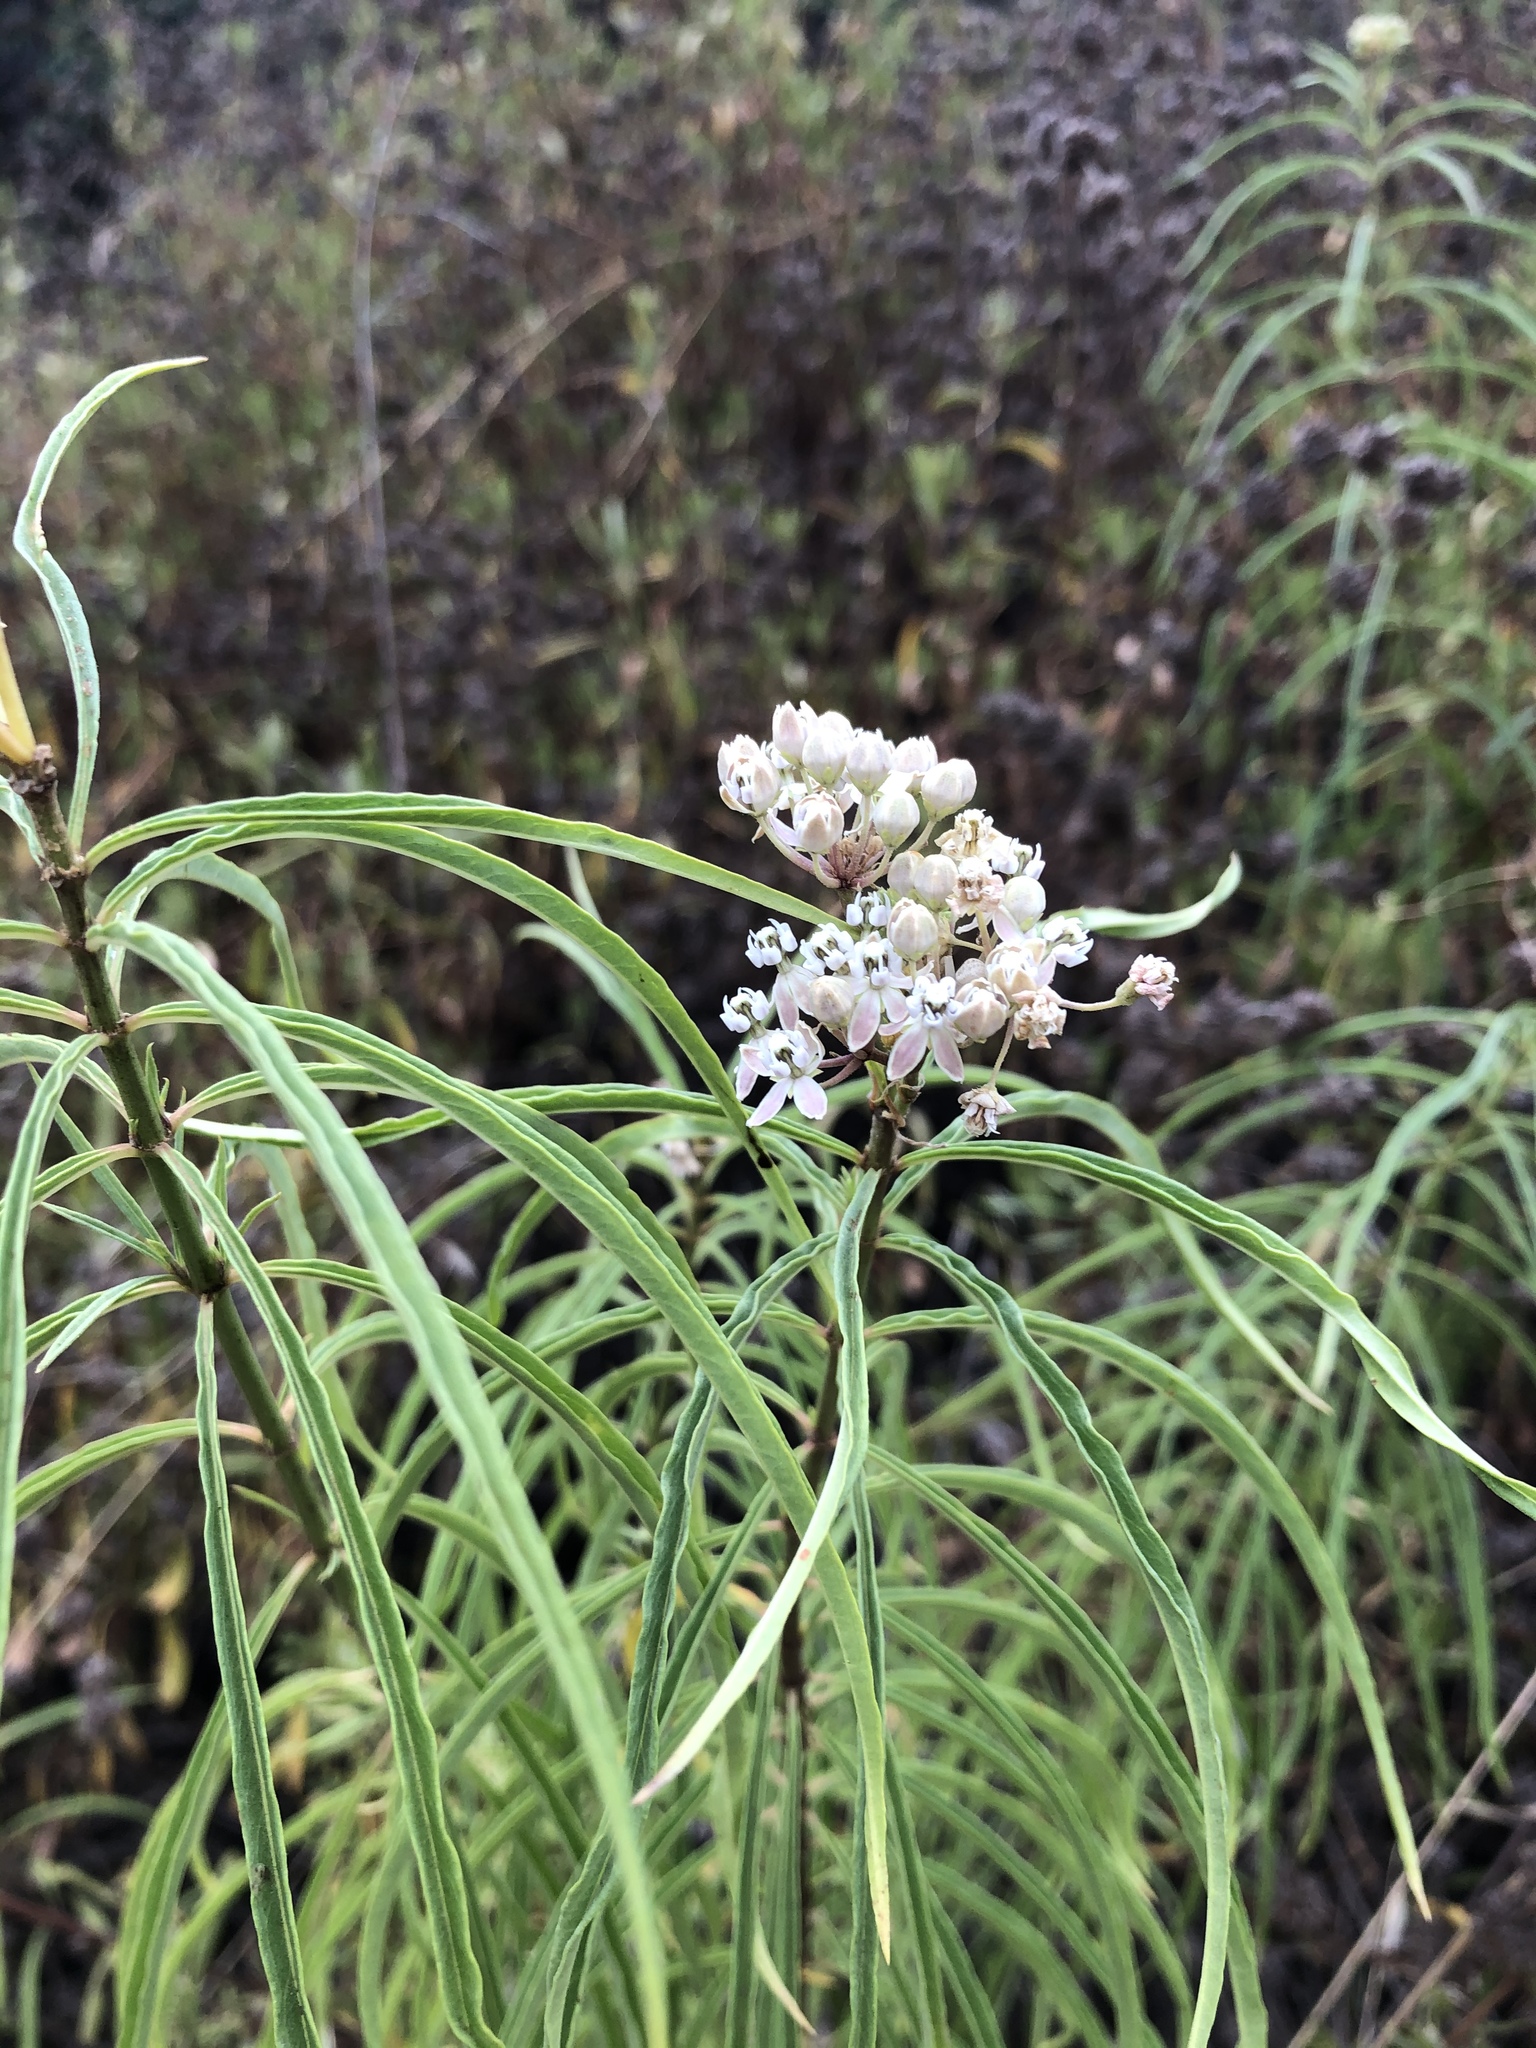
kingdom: Plantae
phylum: Tracheophyta
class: Magnoliopsida
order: Gentianales
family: Apocynaceae
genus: Asclepias
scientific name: Asclepias fascicularis
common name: Mexican milkweed
